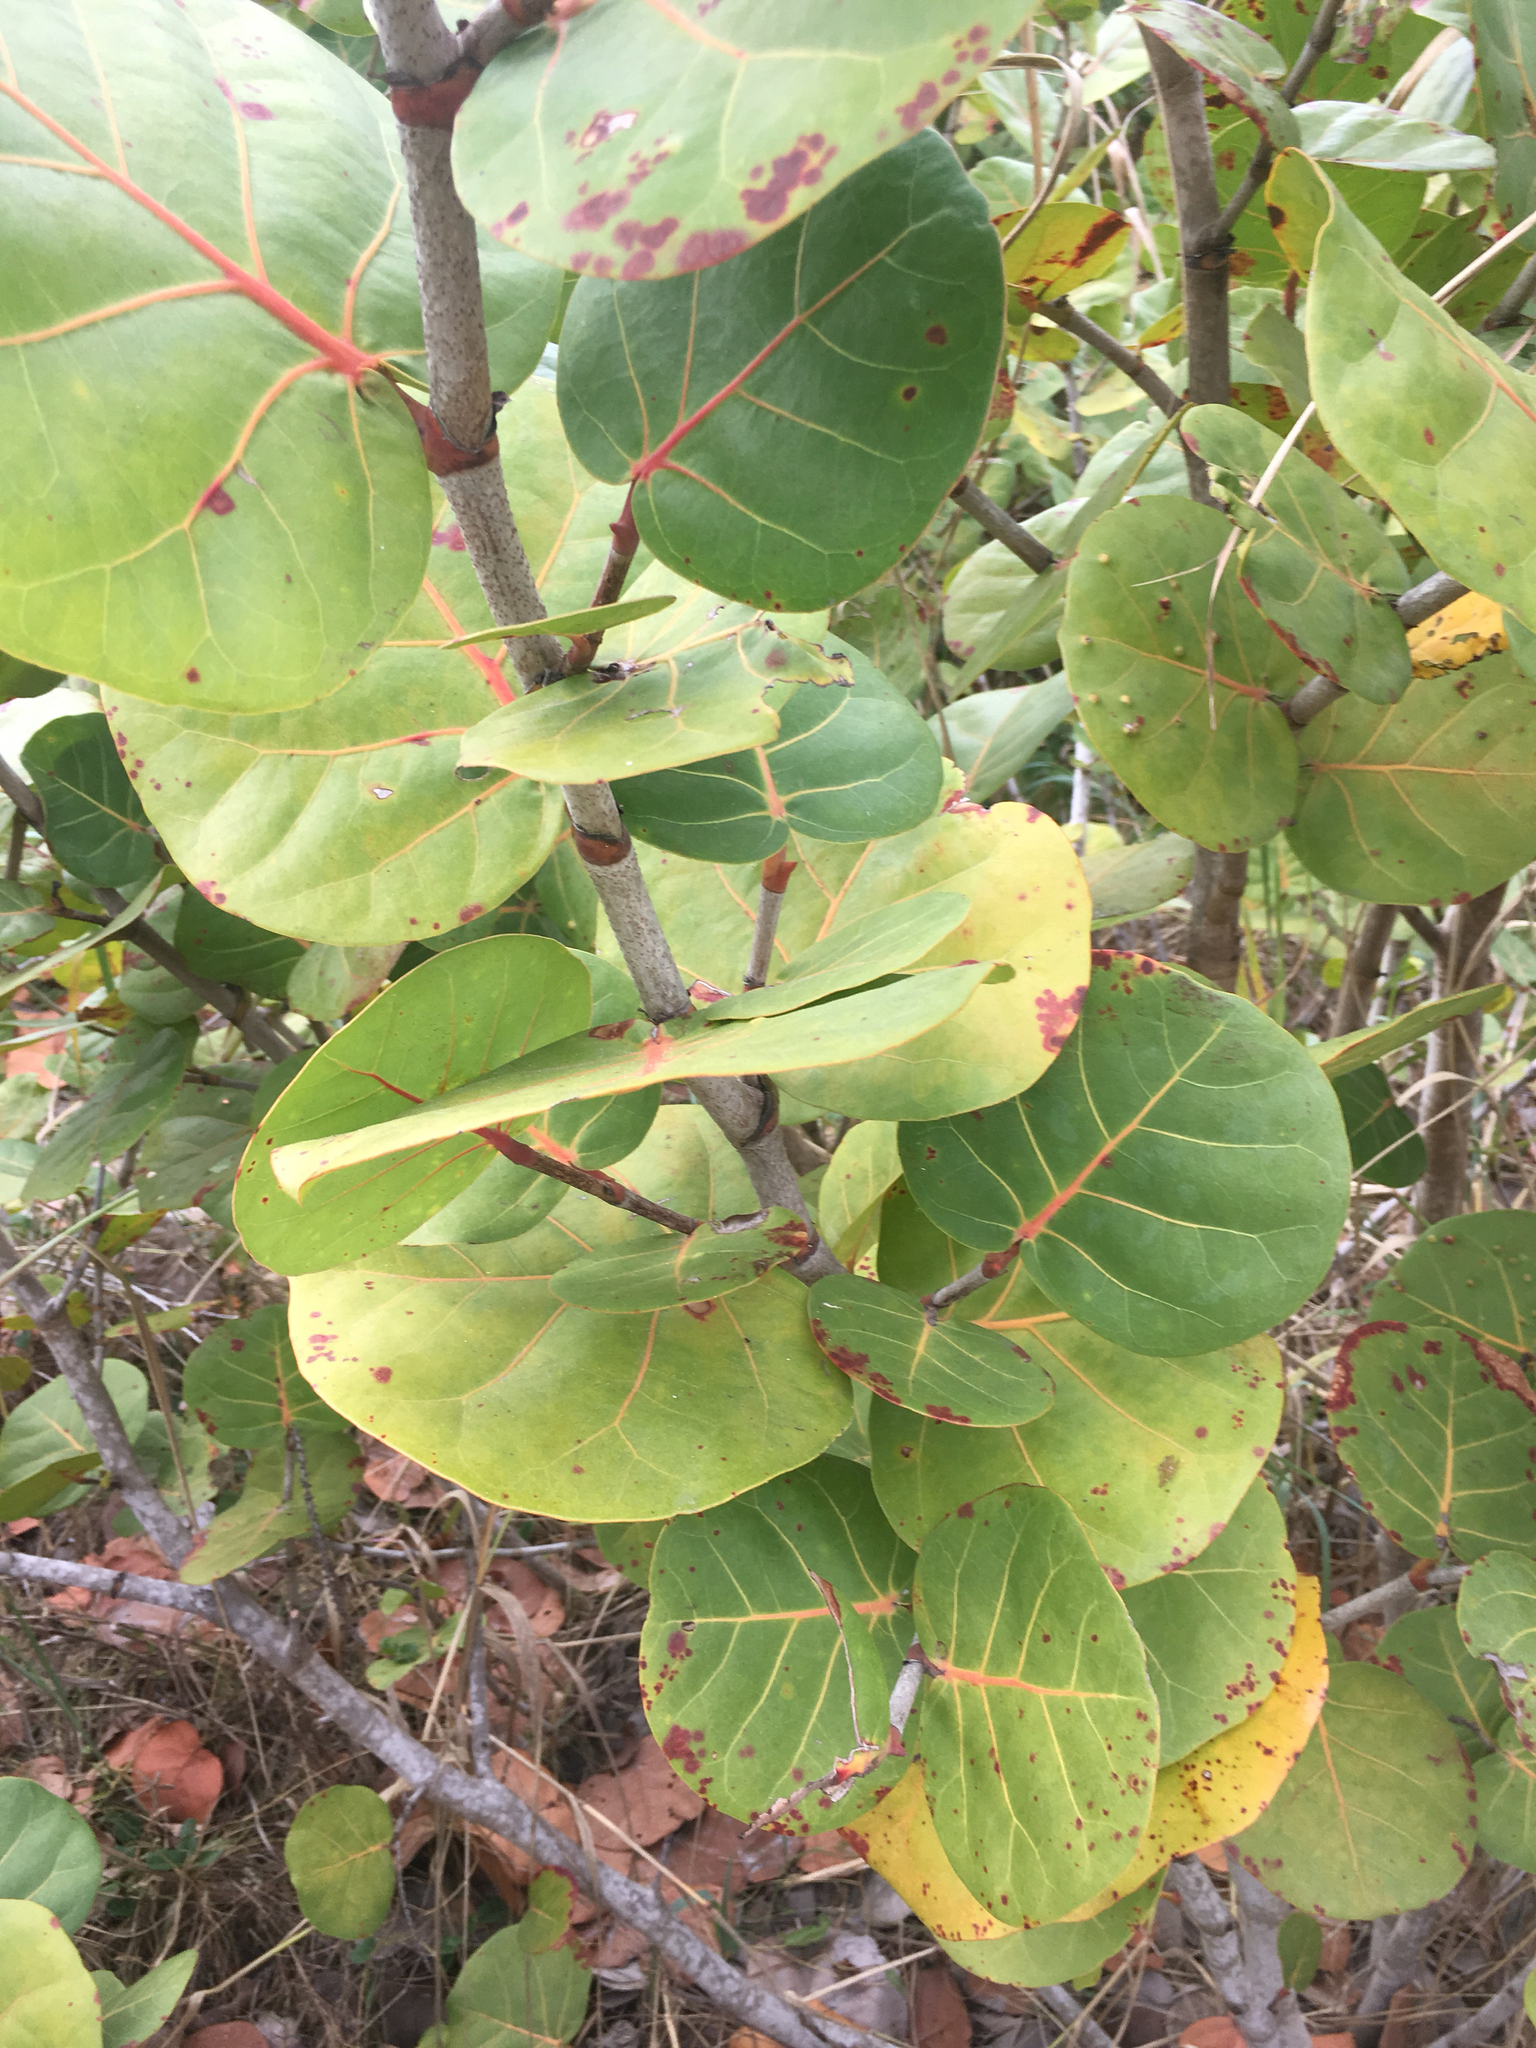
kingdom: Plantae
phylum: Tracheophyta
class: Magnoliopsida
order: Caryophyllales
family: Polygonaceae
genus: Coccoloba
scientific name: Coccoloba uvifera
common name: Seagrape
